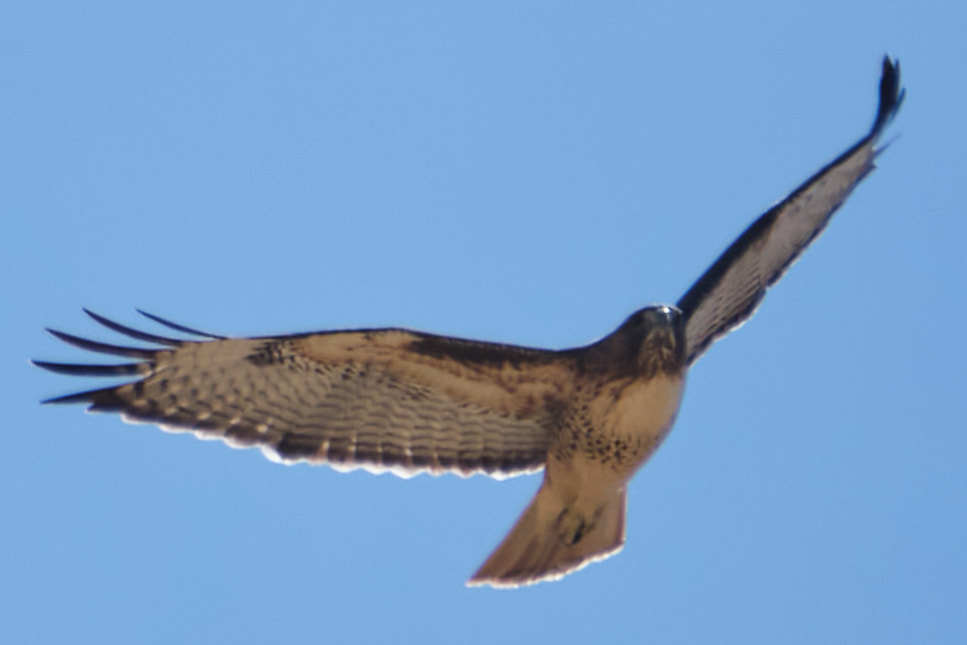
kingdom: Animalia
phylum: Chordata
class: Aves
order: Accipitriformes
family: Accipitridae
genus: Buteo
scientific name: Buteo jamaicensis
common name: Red-tailed hawk
